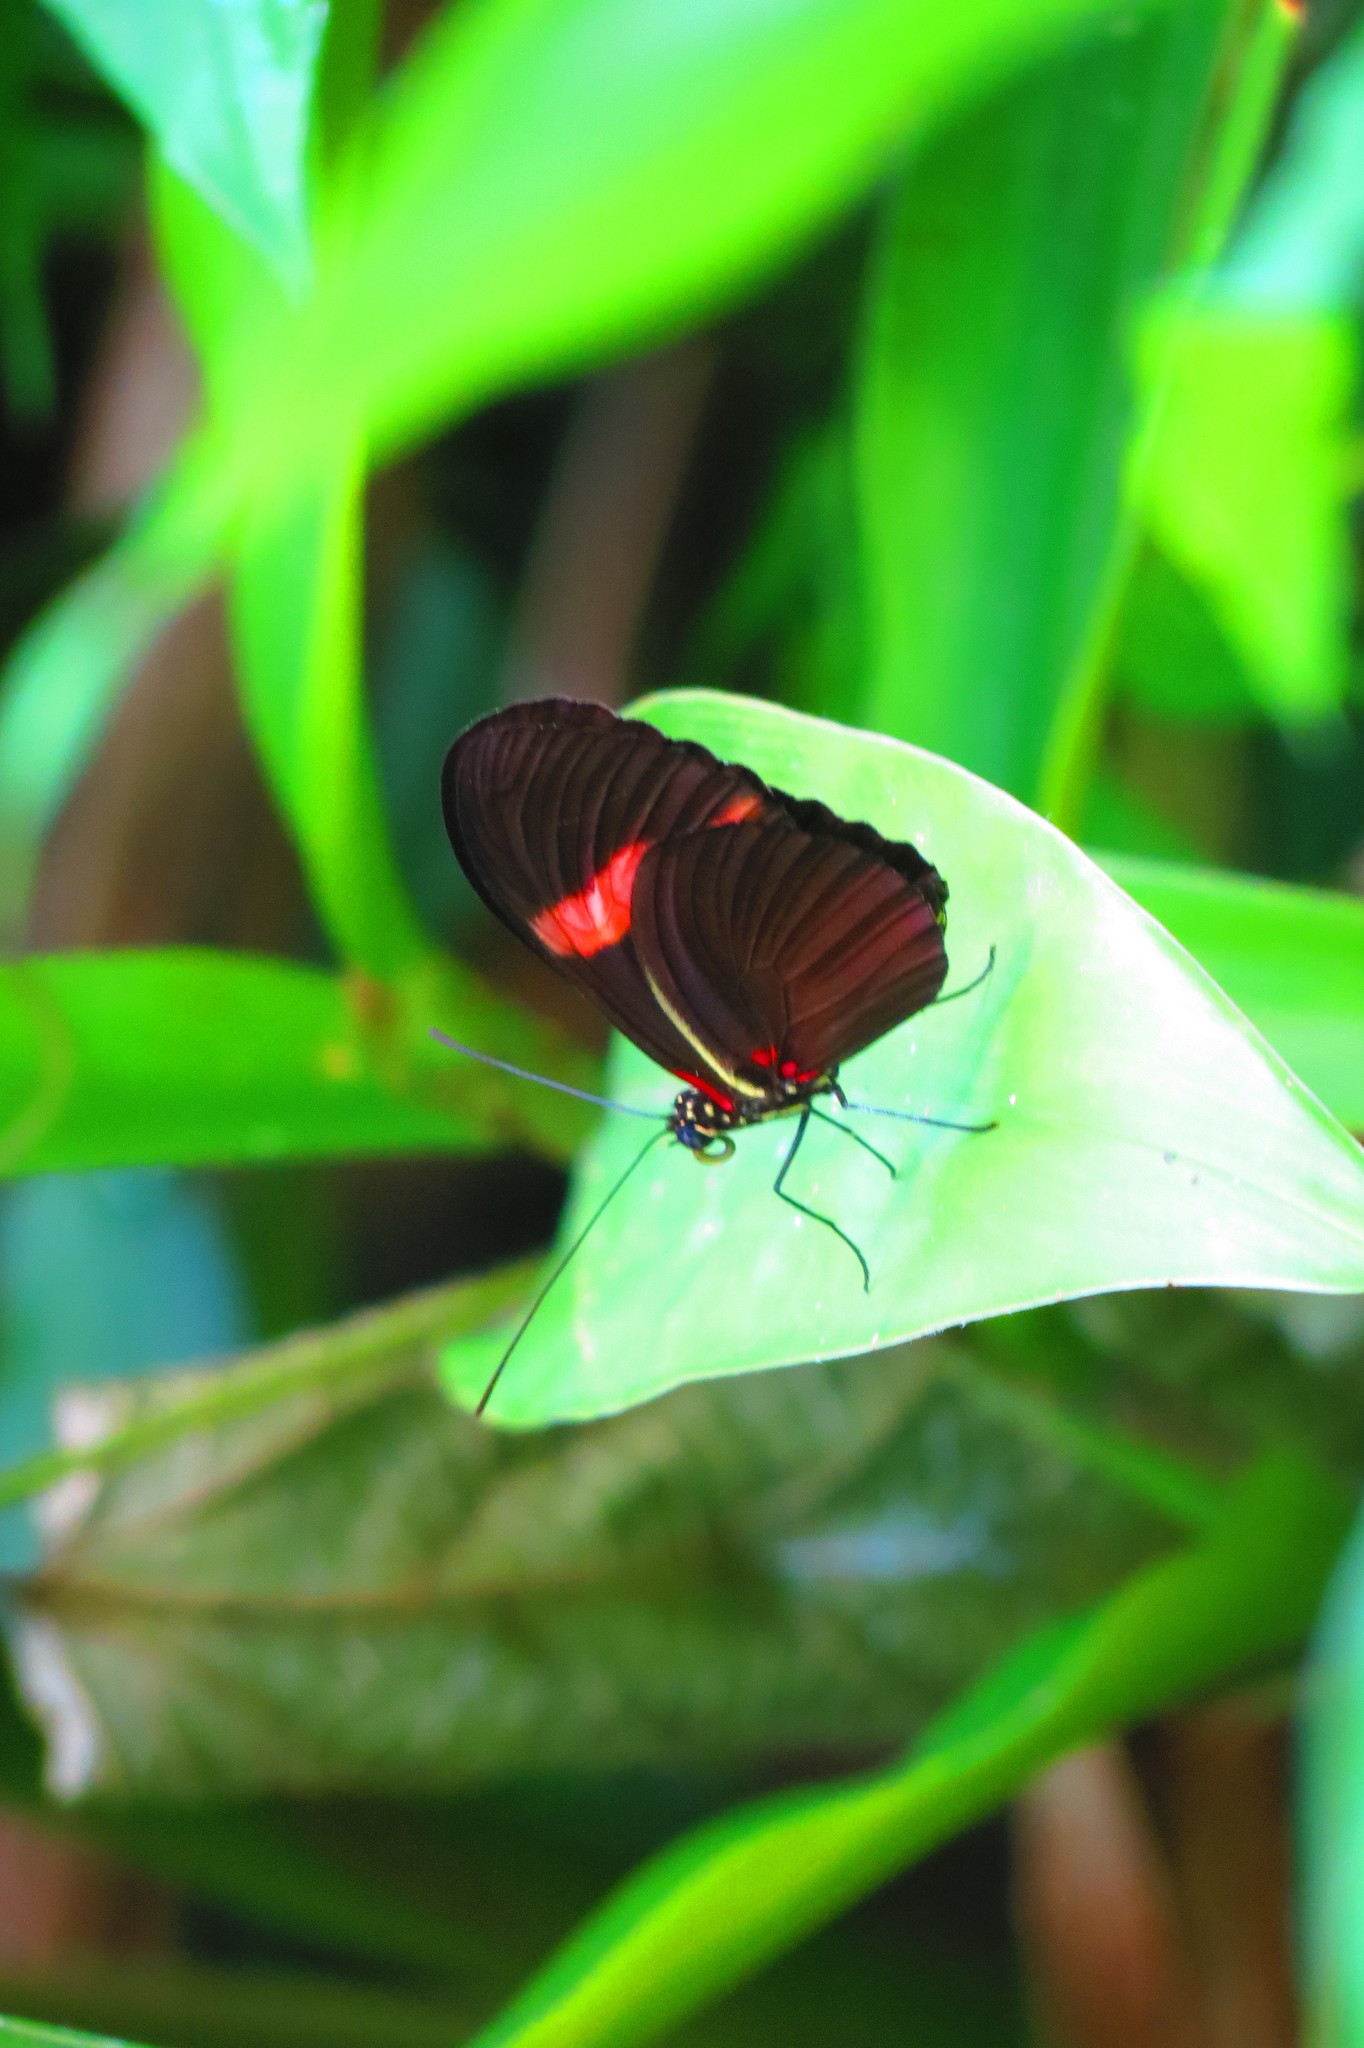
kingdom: Animalia
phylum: Arthropoda
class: Insecta
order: Lepidoptera
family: Nymphalidae
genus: Heliconius
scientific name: Heliconius erato
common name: Common patch longwing
